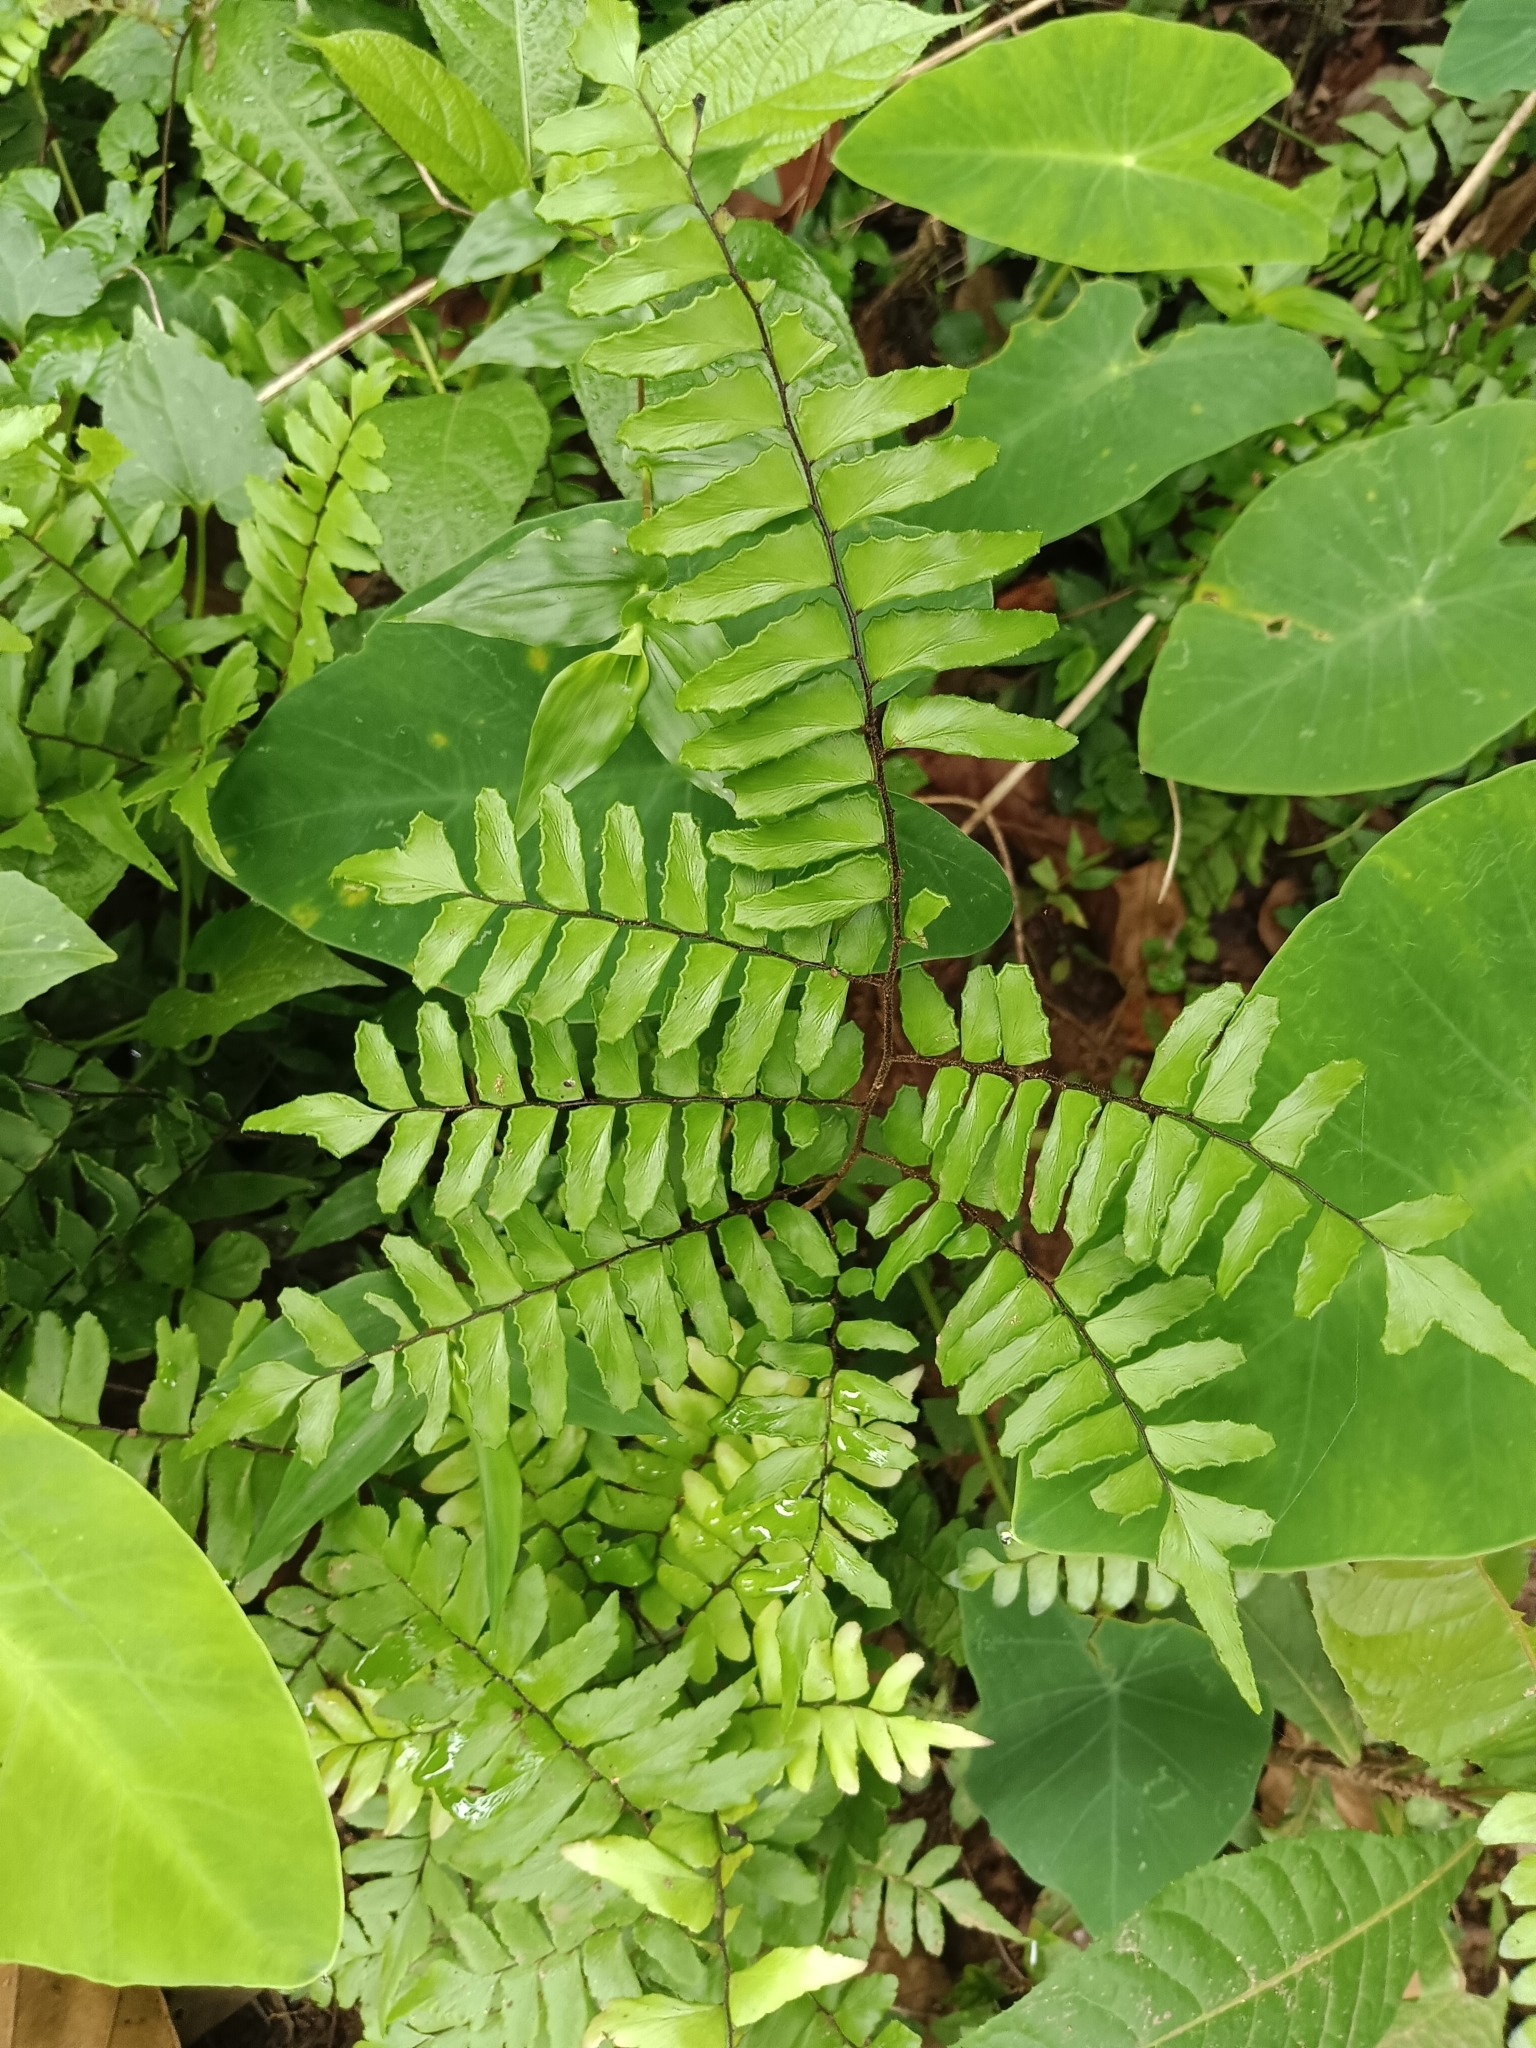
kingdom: Plantae
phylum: Tracheophyta
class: Polypodiopsida
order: Polypodiales
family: Pteridaceae
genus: Adiantum
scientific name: Adiantum latifolium
